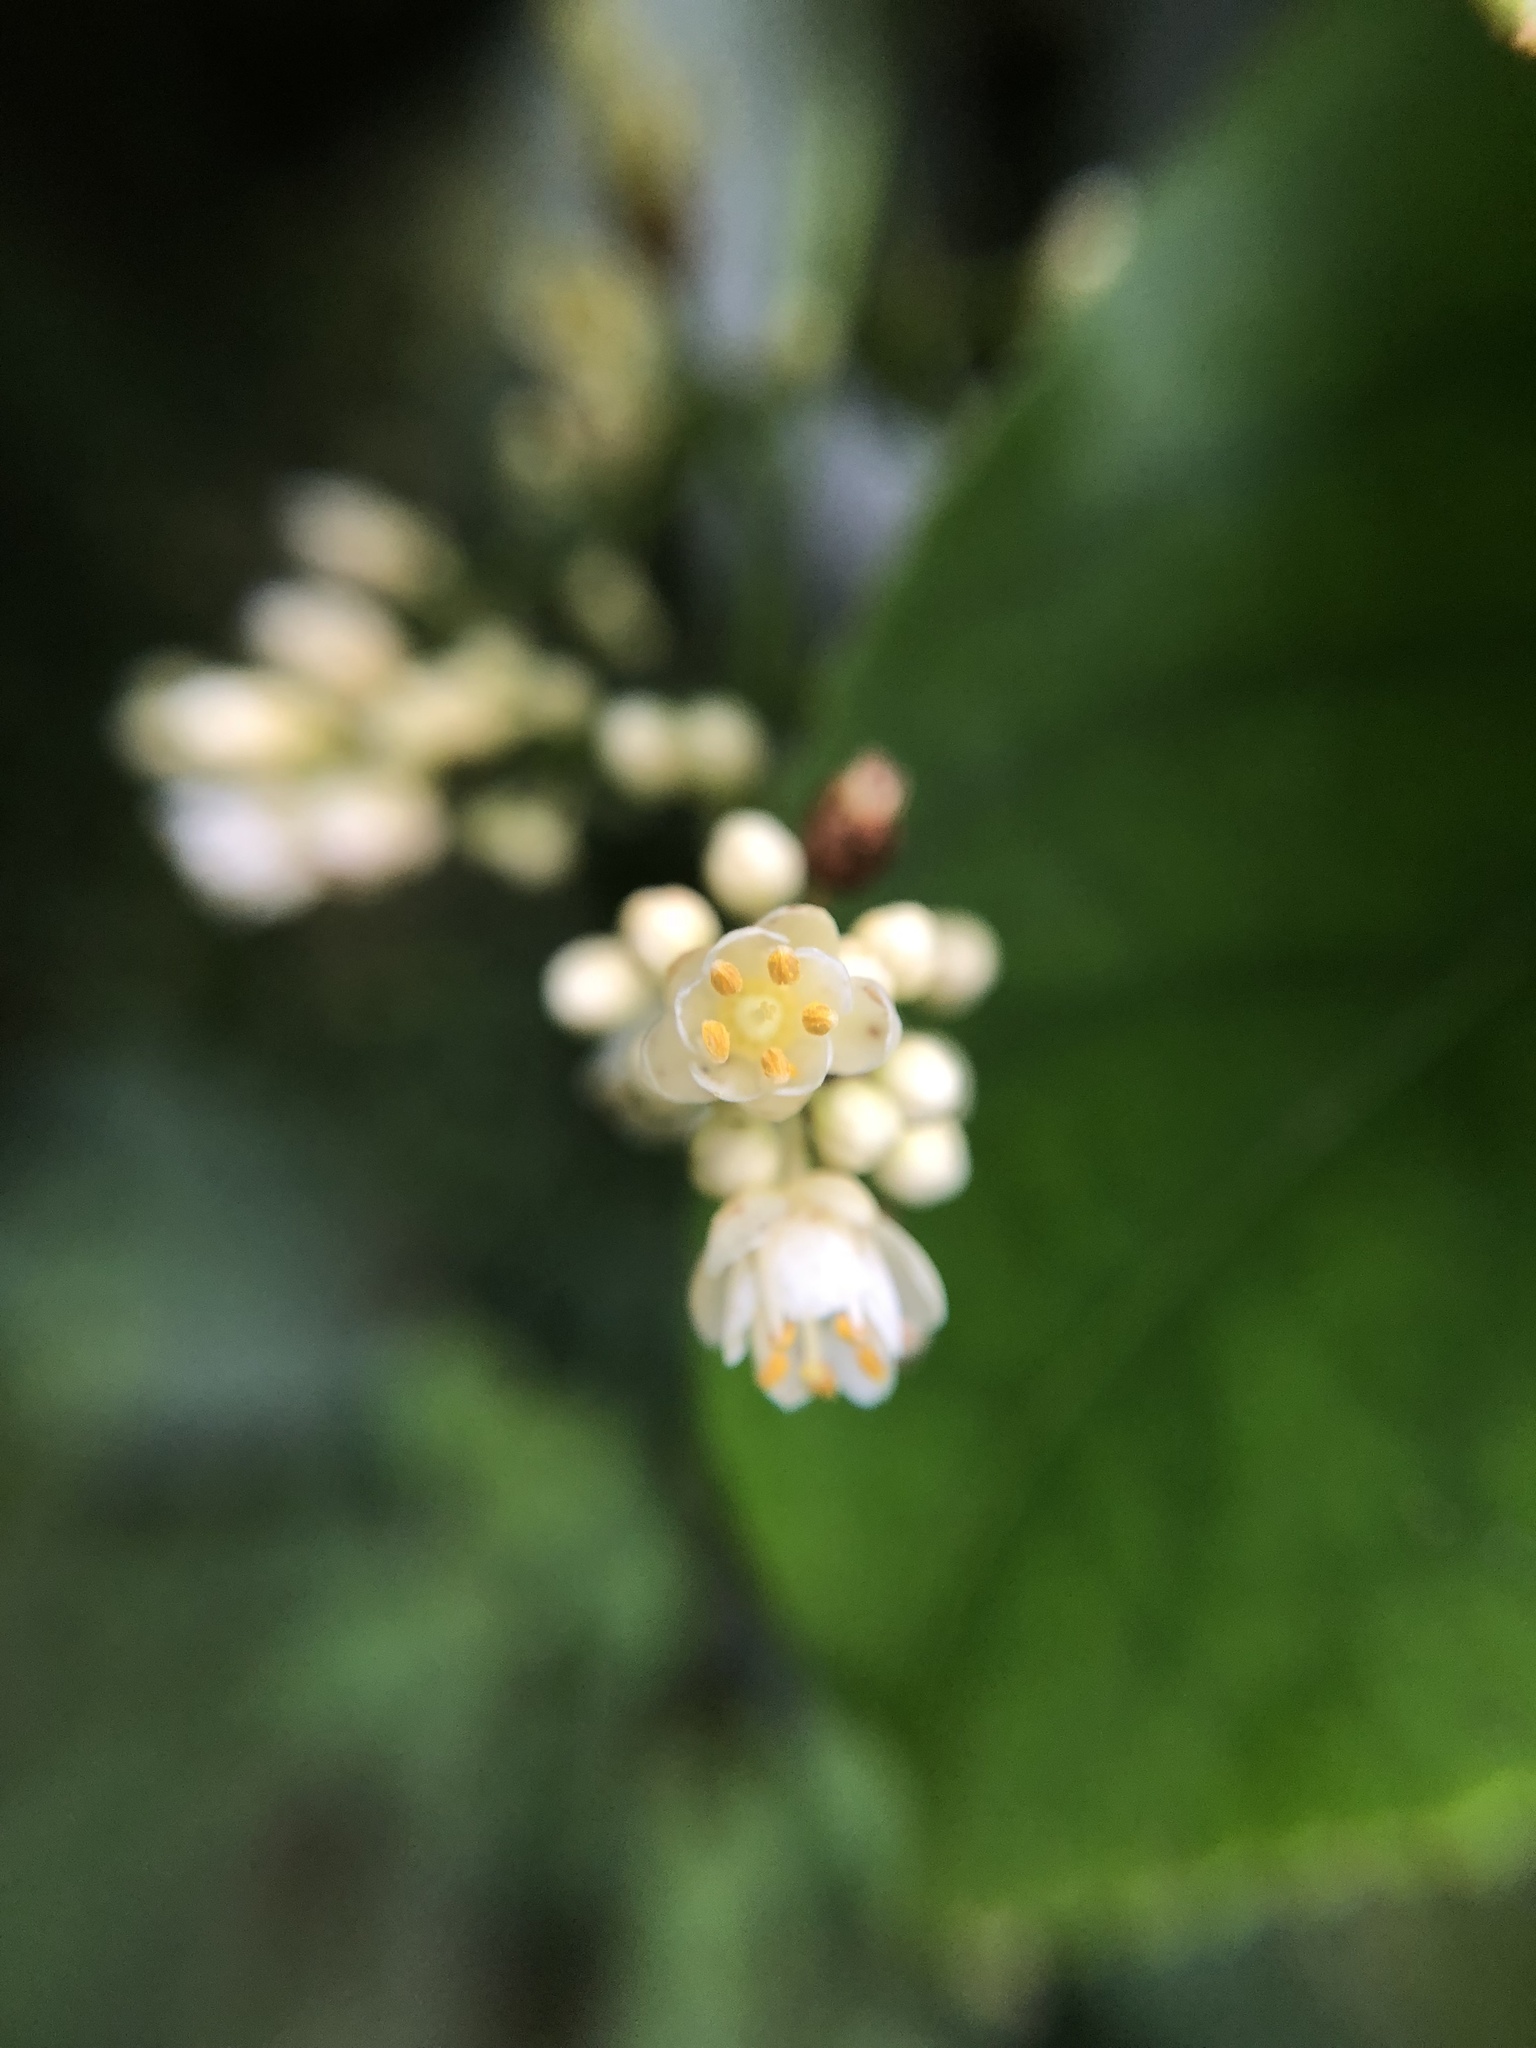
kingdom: Plantae
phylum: Tracheophyta
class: Magnoliopsida
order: Crossosomatales
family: Staphyleaceae
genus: Turpinia
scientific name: Turpinia formosana
